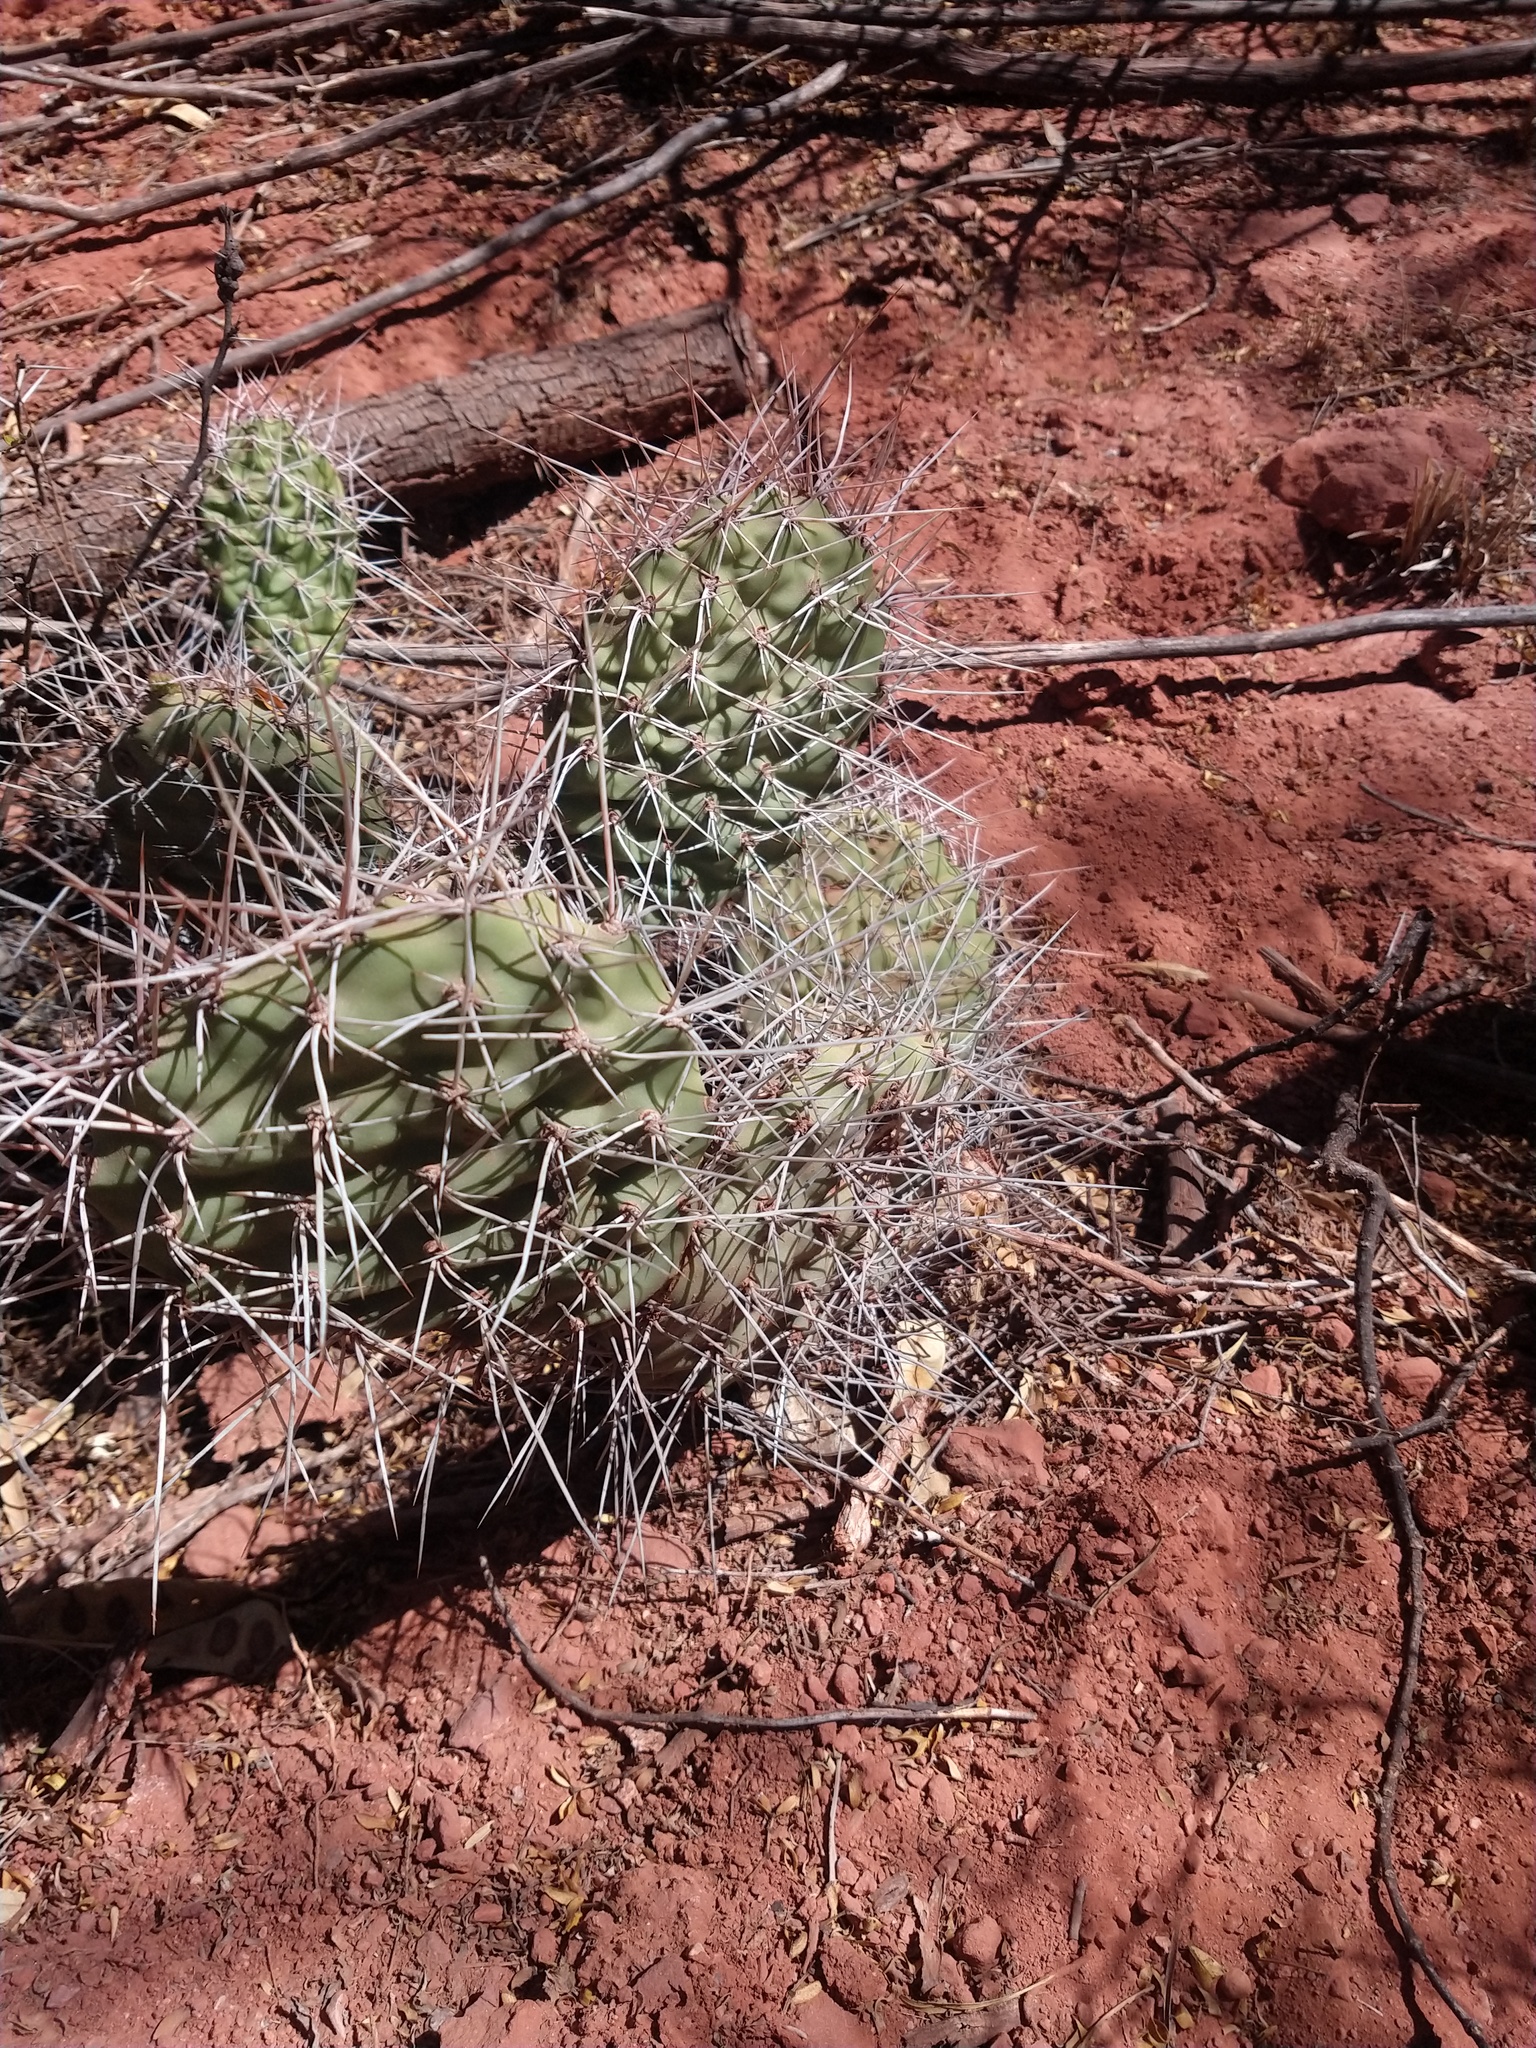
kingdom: Plantae
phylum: Tracheophyta
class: Magnoliopsida
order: Caryophyllales
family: Cactaceae
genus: Opuntia
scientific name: Opuntia sulphurea
